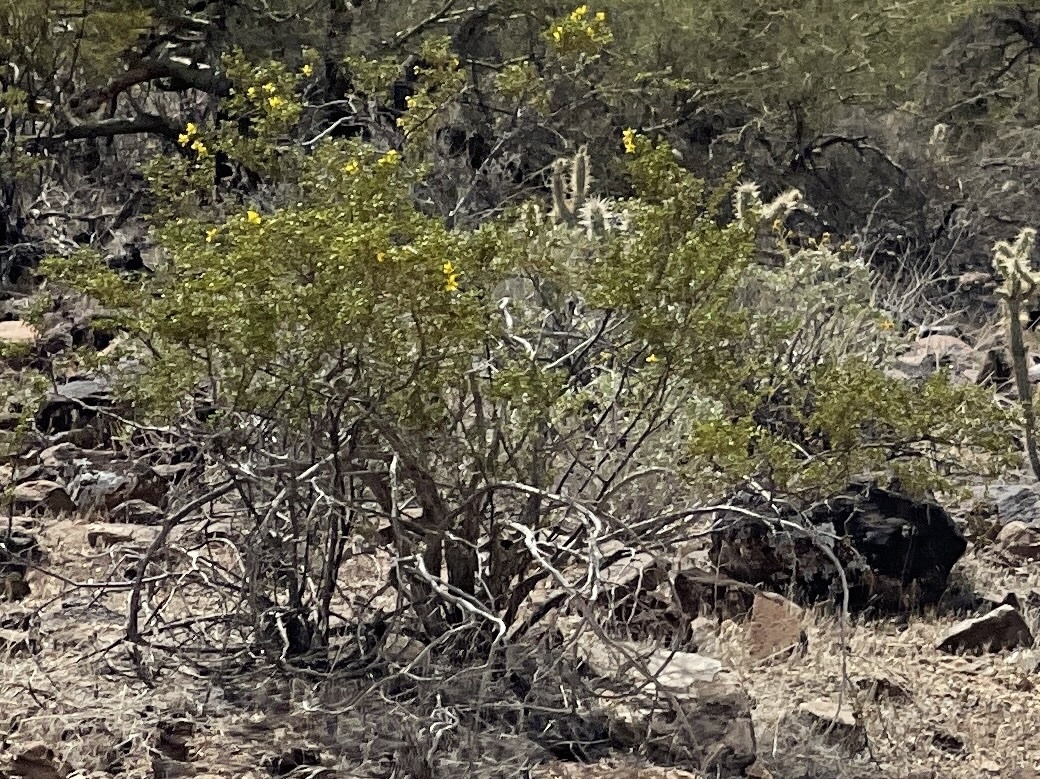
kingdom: Plantae
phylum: Tracheophyta
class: Magnoliopsida
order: Zygophyllales
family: Zygophyllaceae
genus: Larrea
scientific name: Larrea tridentata
